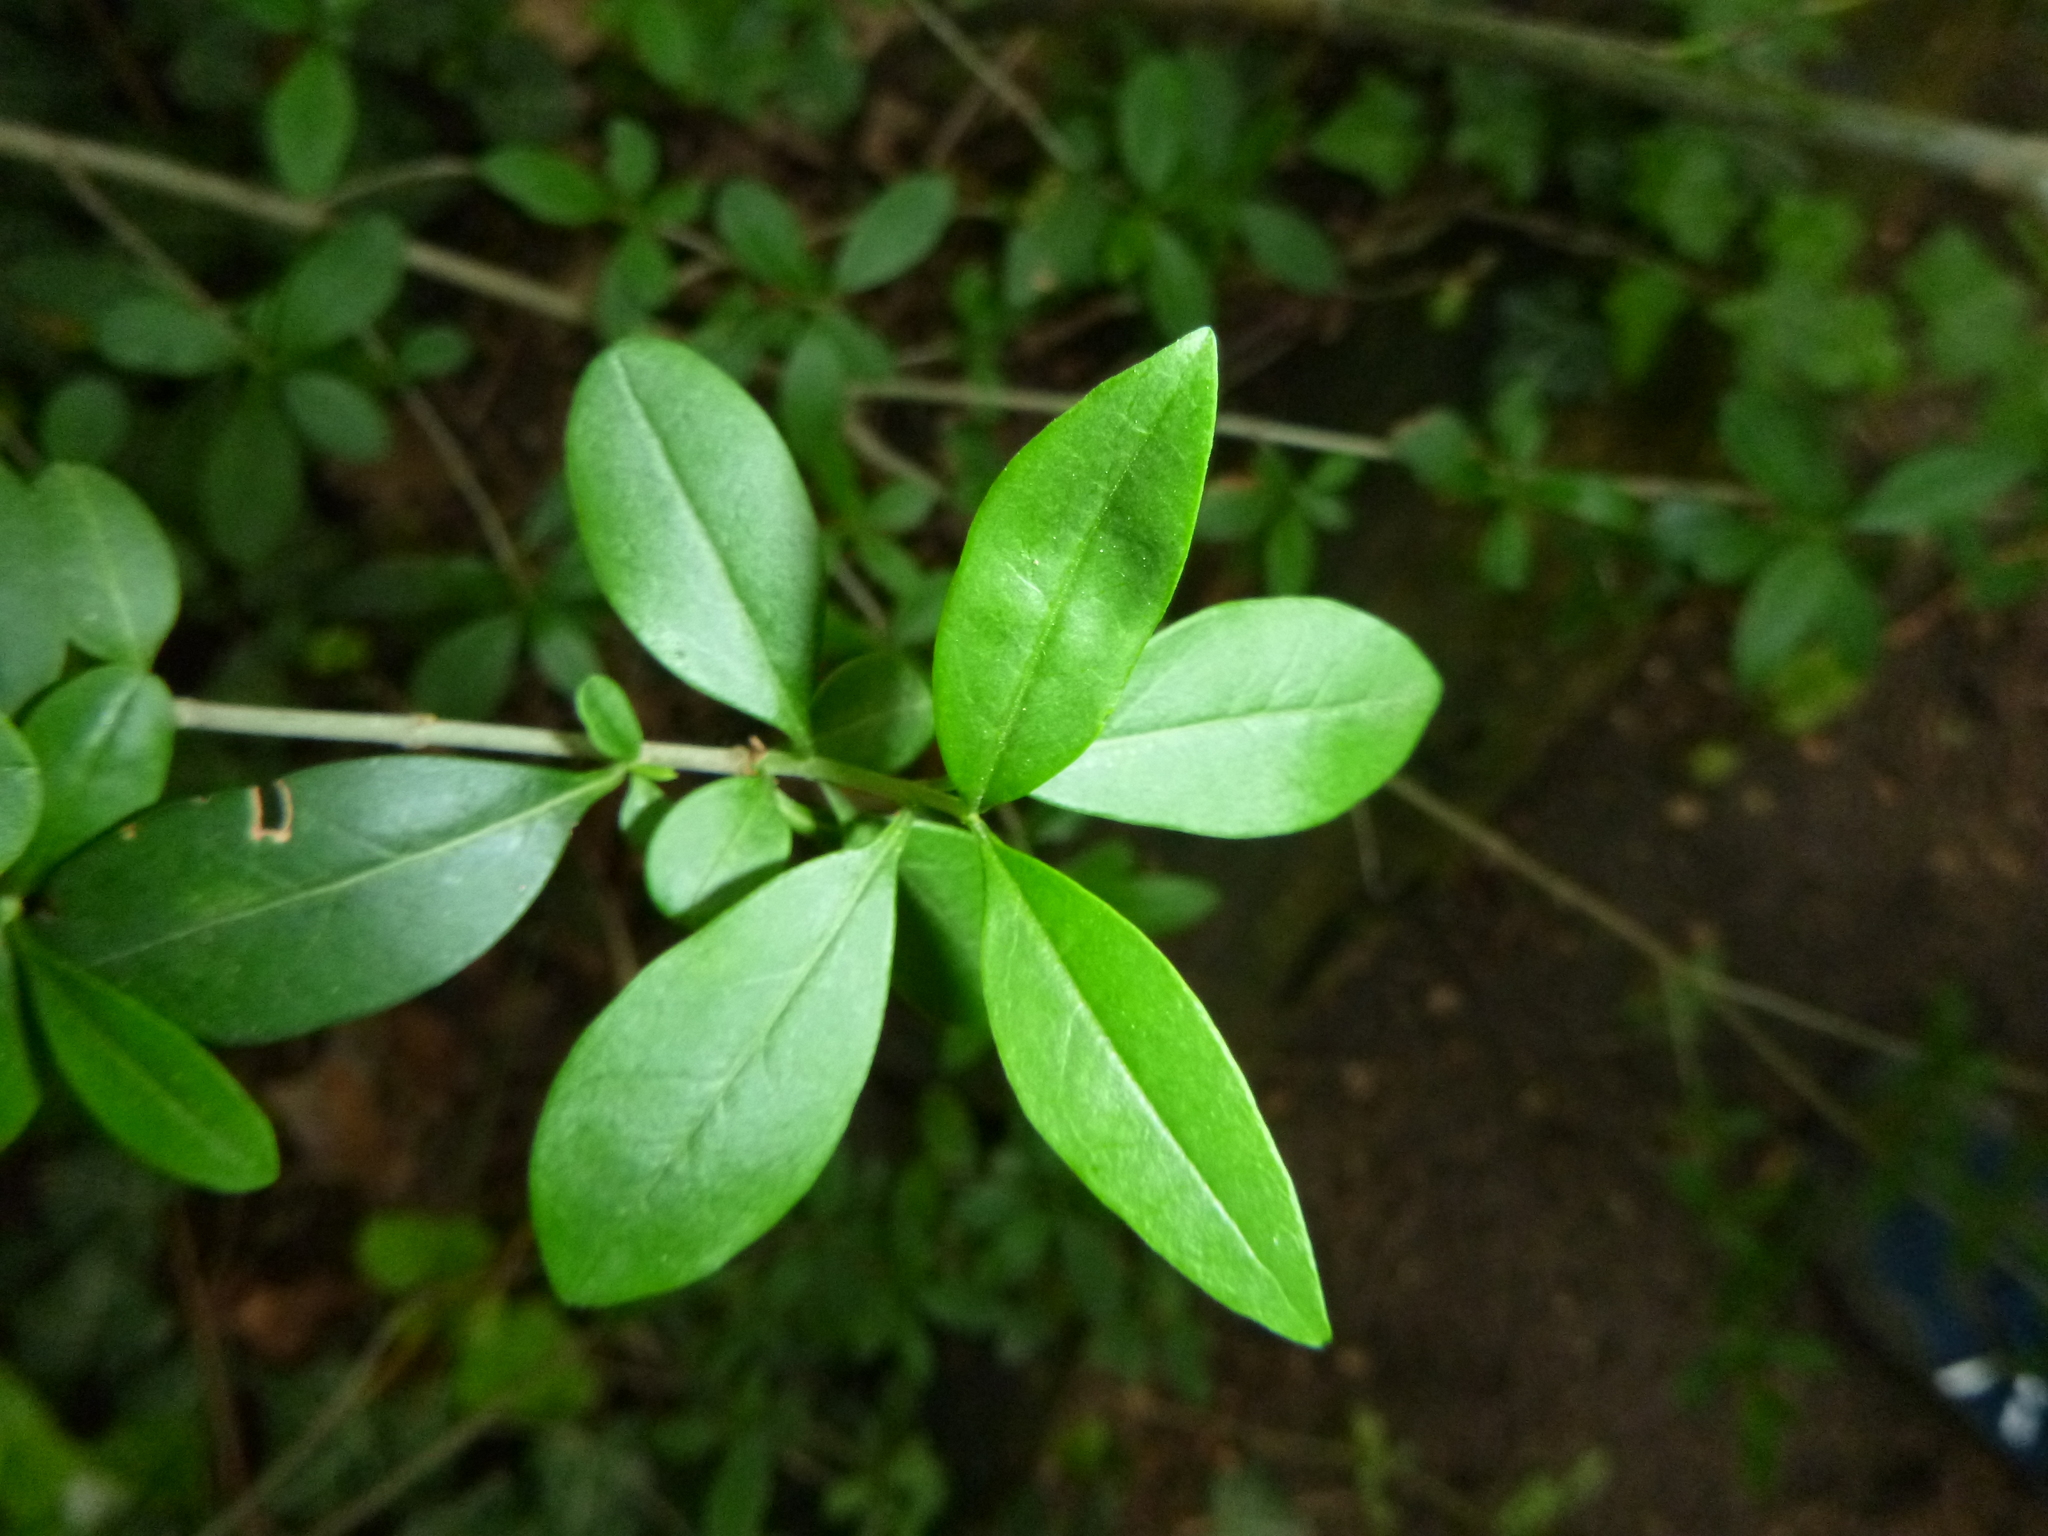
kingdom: Plantae
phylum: Tracheophyta
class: Magnoliopsida
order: Lamiales
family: Oleaceae
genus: Ligustrum
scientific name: Ligustrum vulgare
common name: Wild privet
